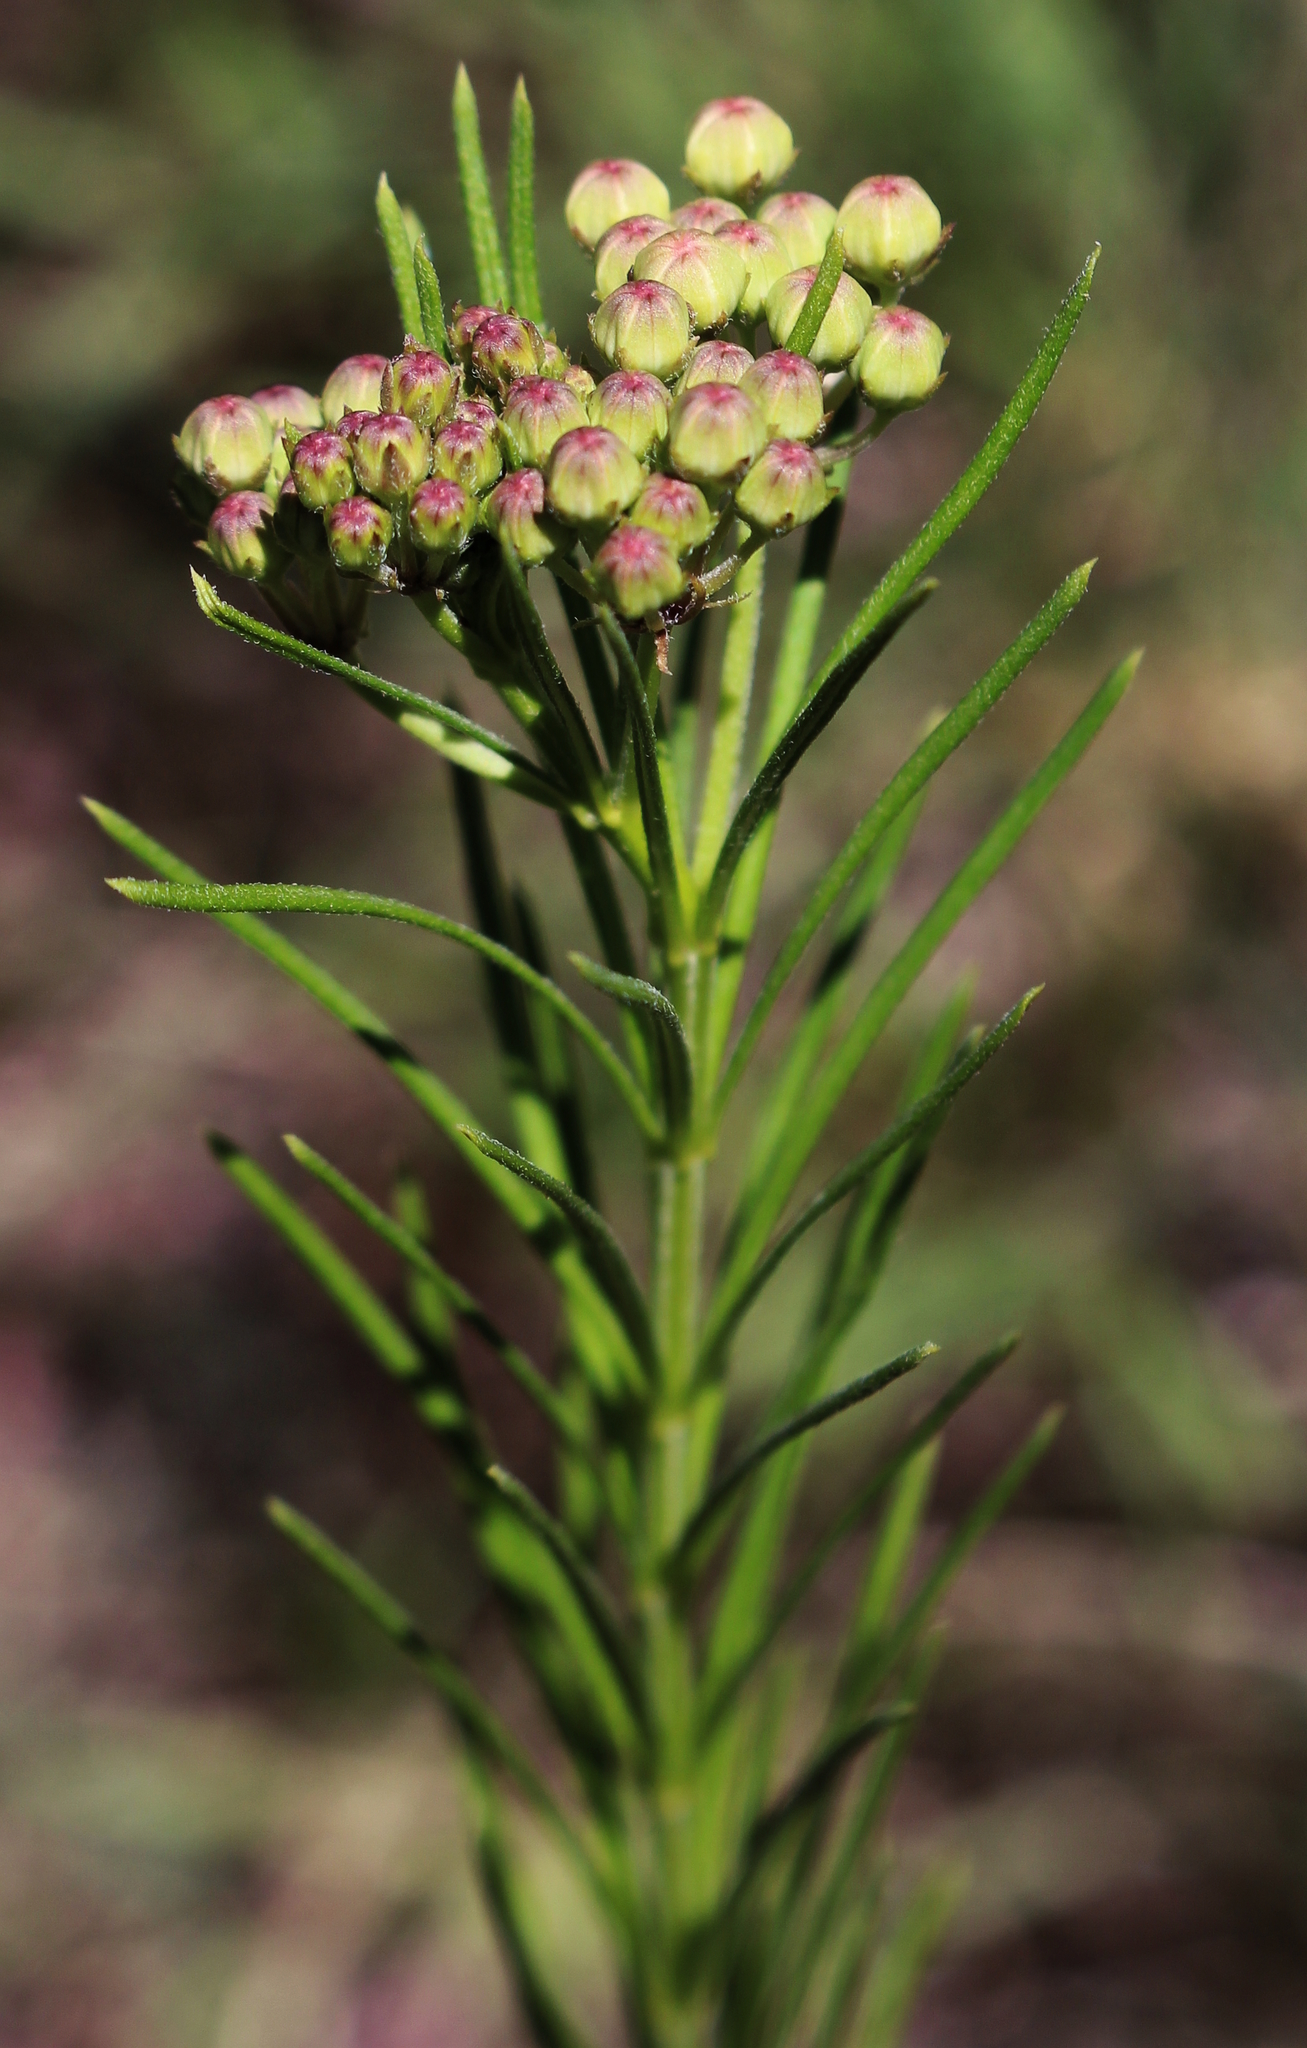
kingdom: Plantae
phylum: Tracheophyta
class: Magnoliopsida
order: Gentianales
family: Apocynaceae
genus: Asclepias
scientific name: Asclepias verticillata
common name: Eastern whorled milkweed
